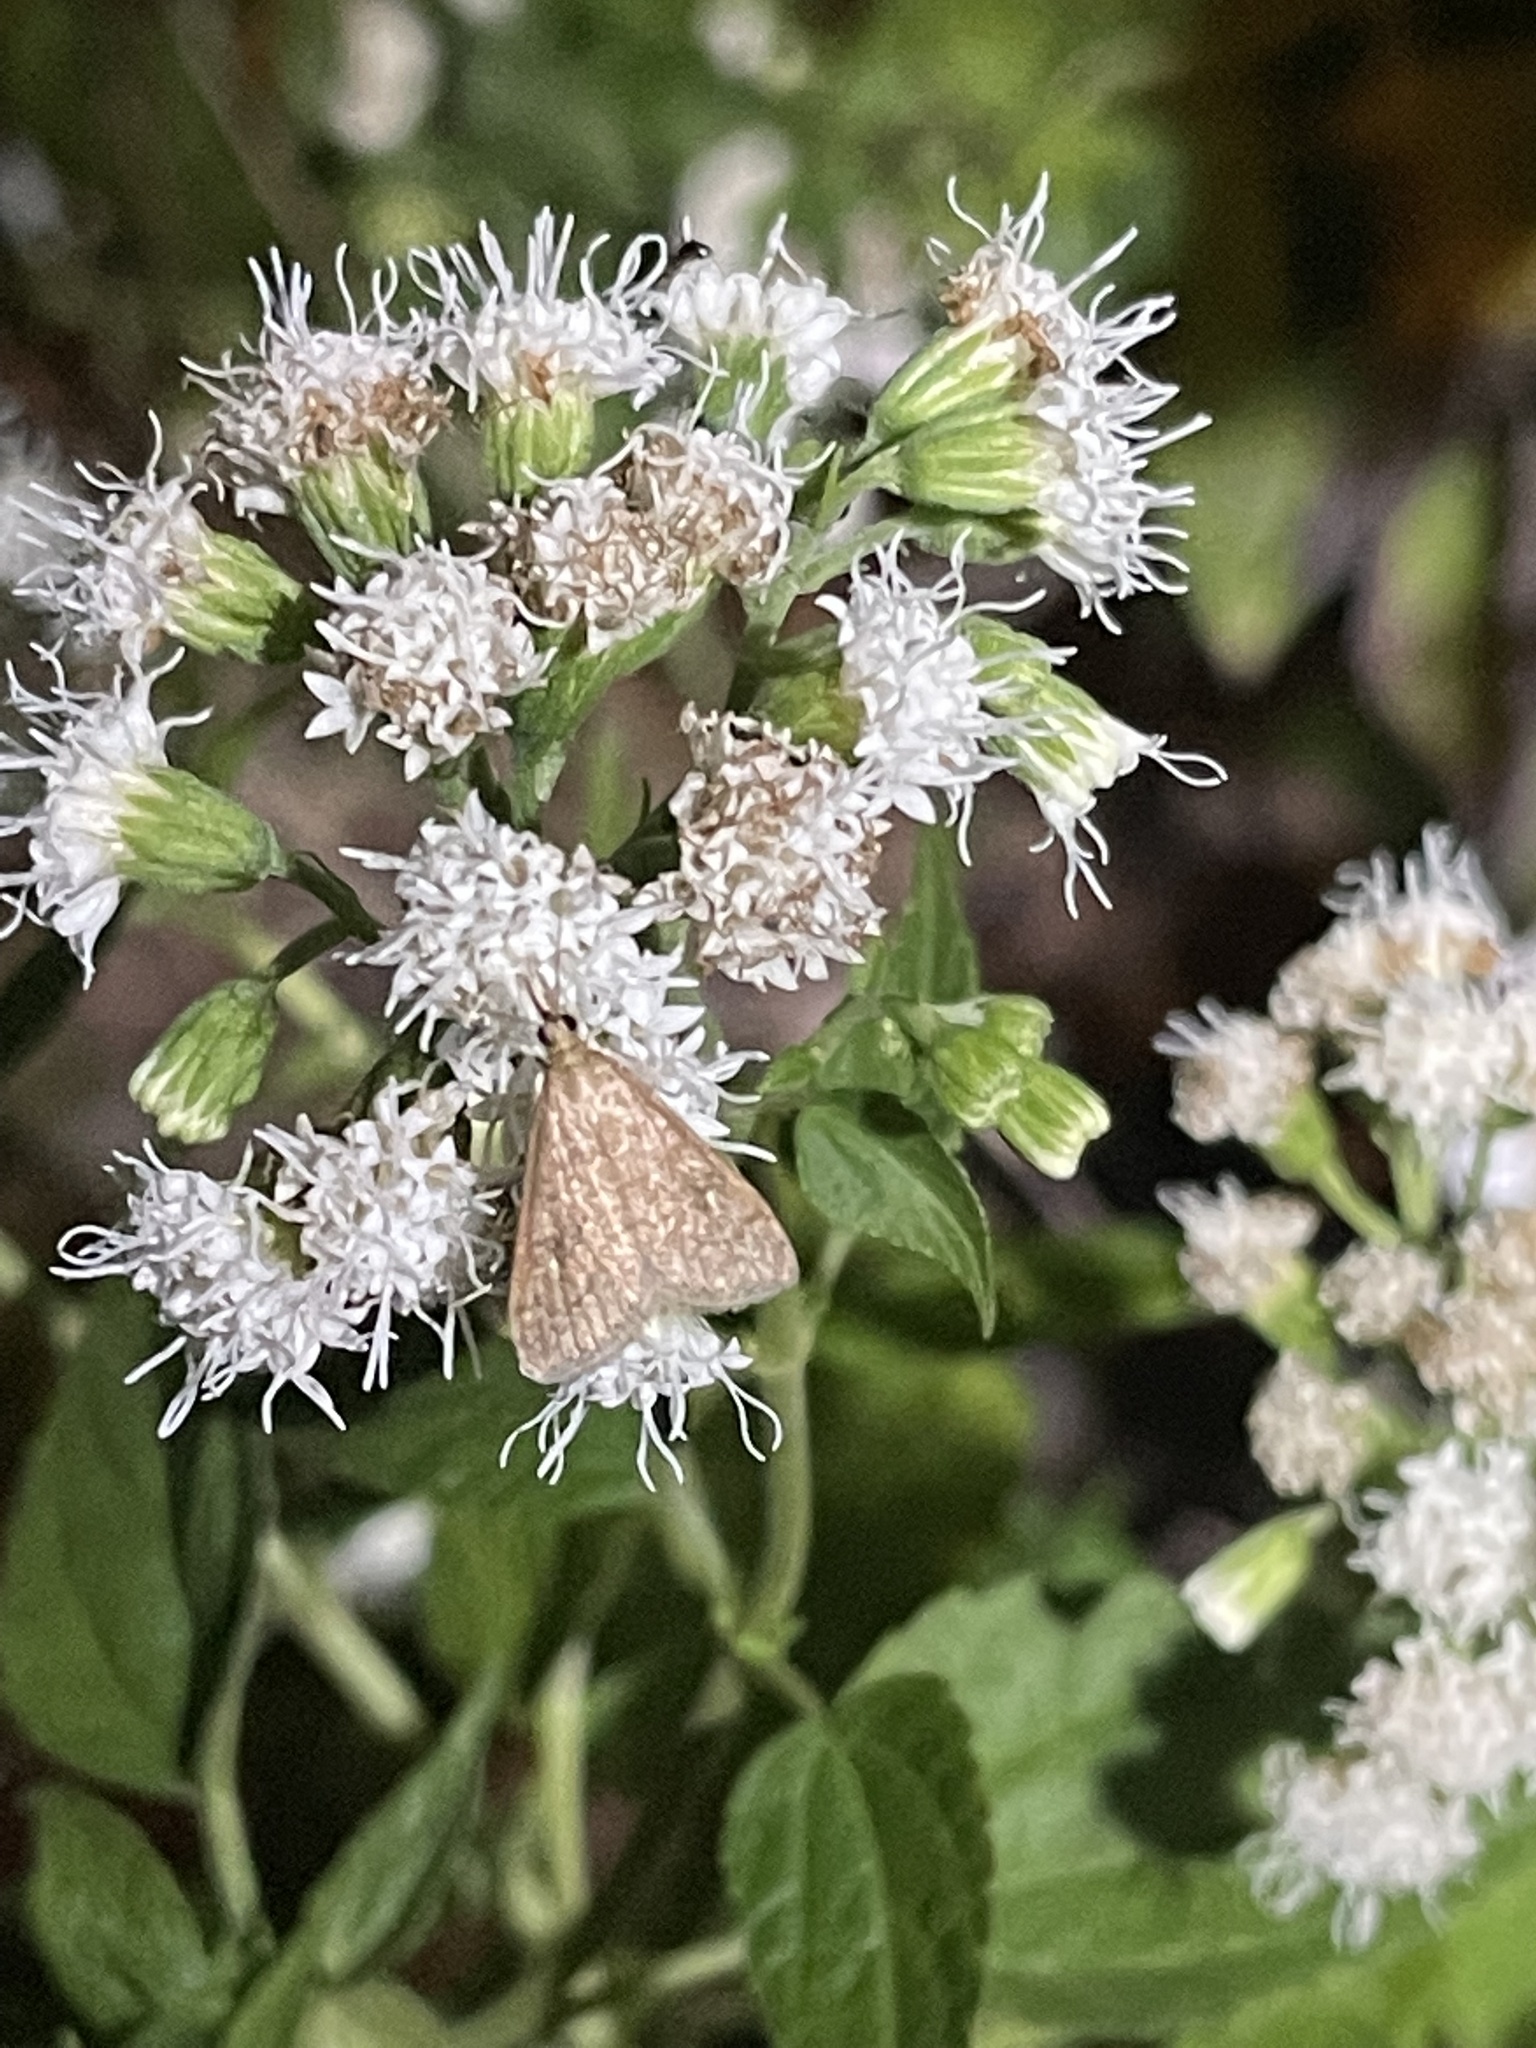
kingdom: Animalia
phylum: Arthropoda
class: Insecta
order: Lepidoptera
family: Crambidae
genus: Udea
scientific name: Udea rubigalis
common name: Celery leaftier moth
